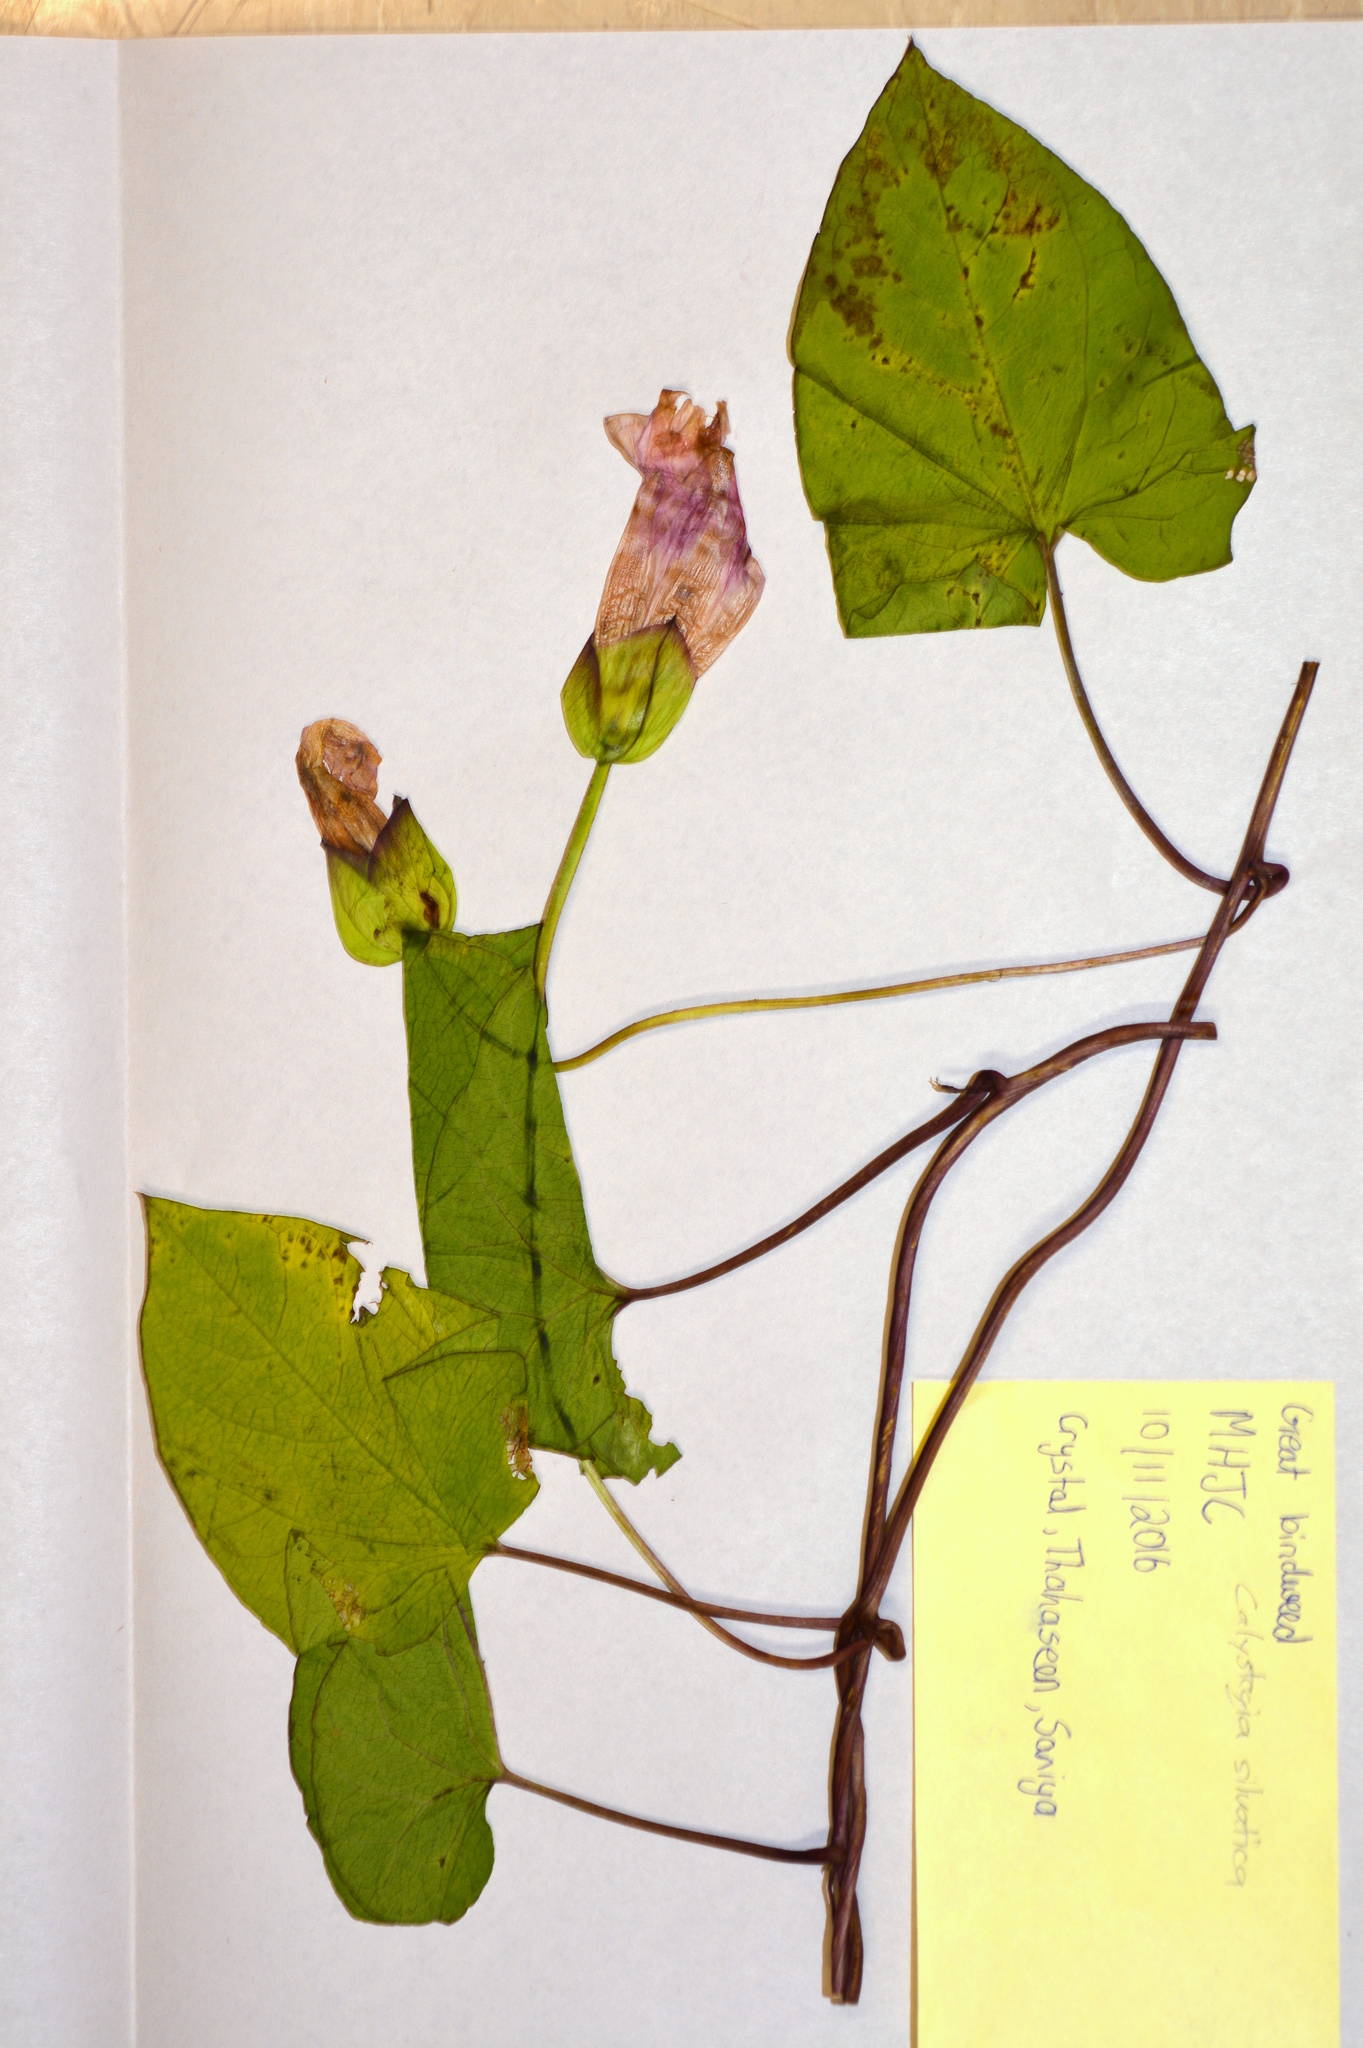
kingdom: Plantae
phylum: Tracheophyta
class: Magnoliopsida
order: Solanales
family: Convolvulaceae
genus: Calystegia
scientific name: Calystegia silvatica
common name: Large bindweed
